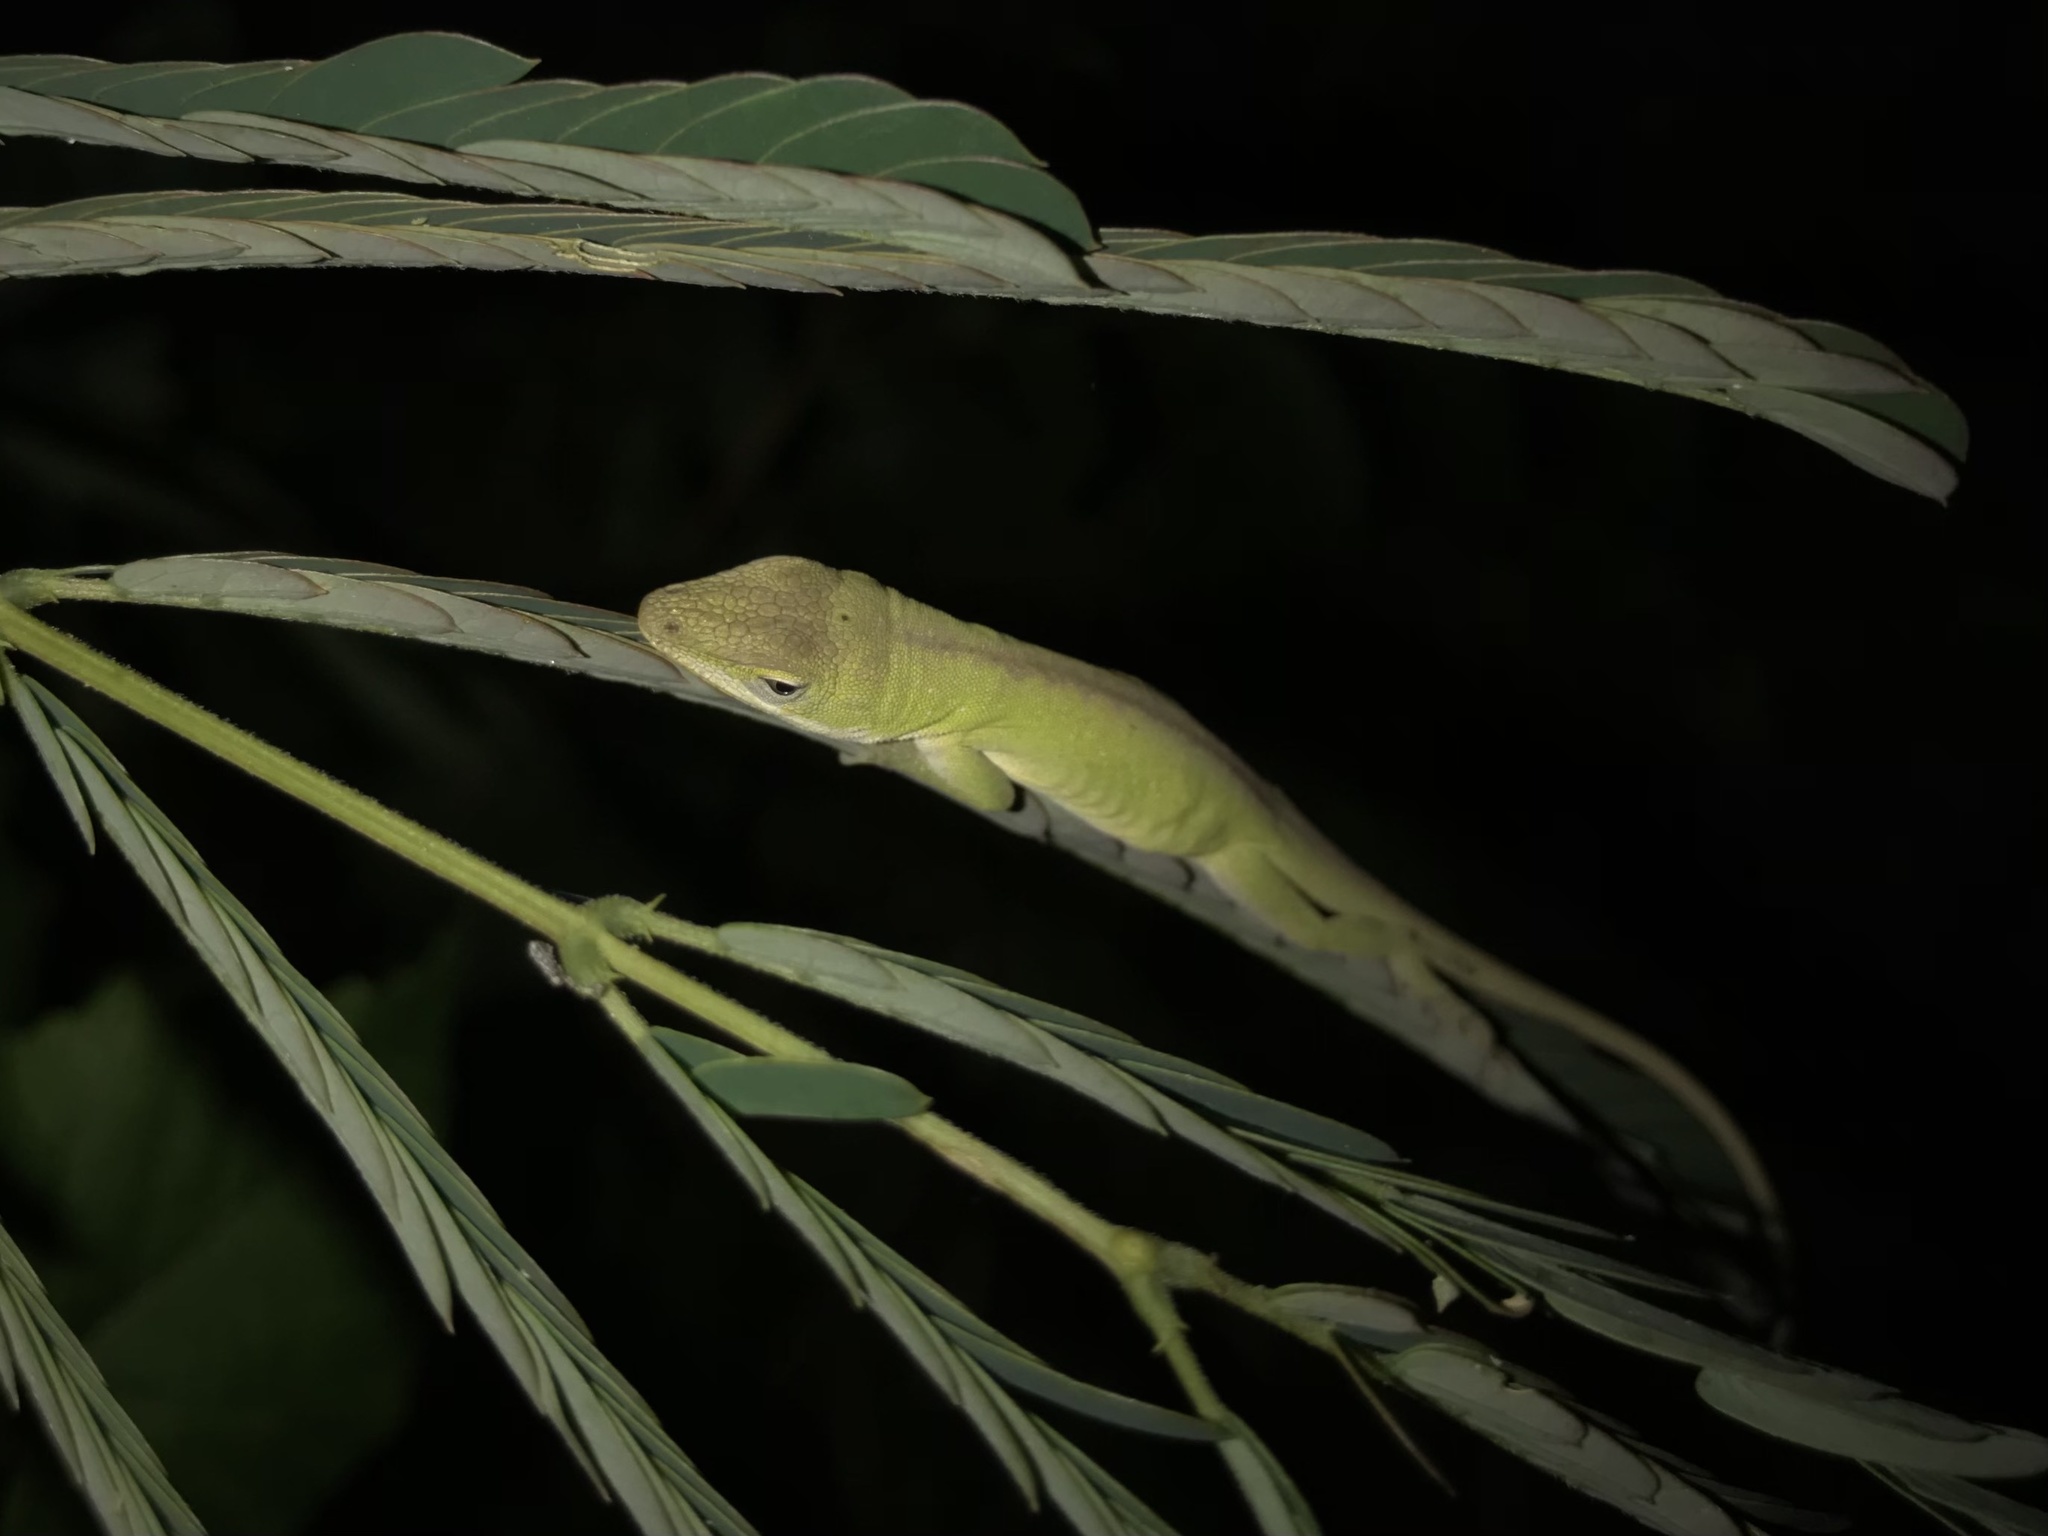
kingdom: Animalia
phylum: Chordata
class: Squamata
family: Dactyloidae
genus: Anolis
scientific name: Anolis carolinensis
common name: Green anole
